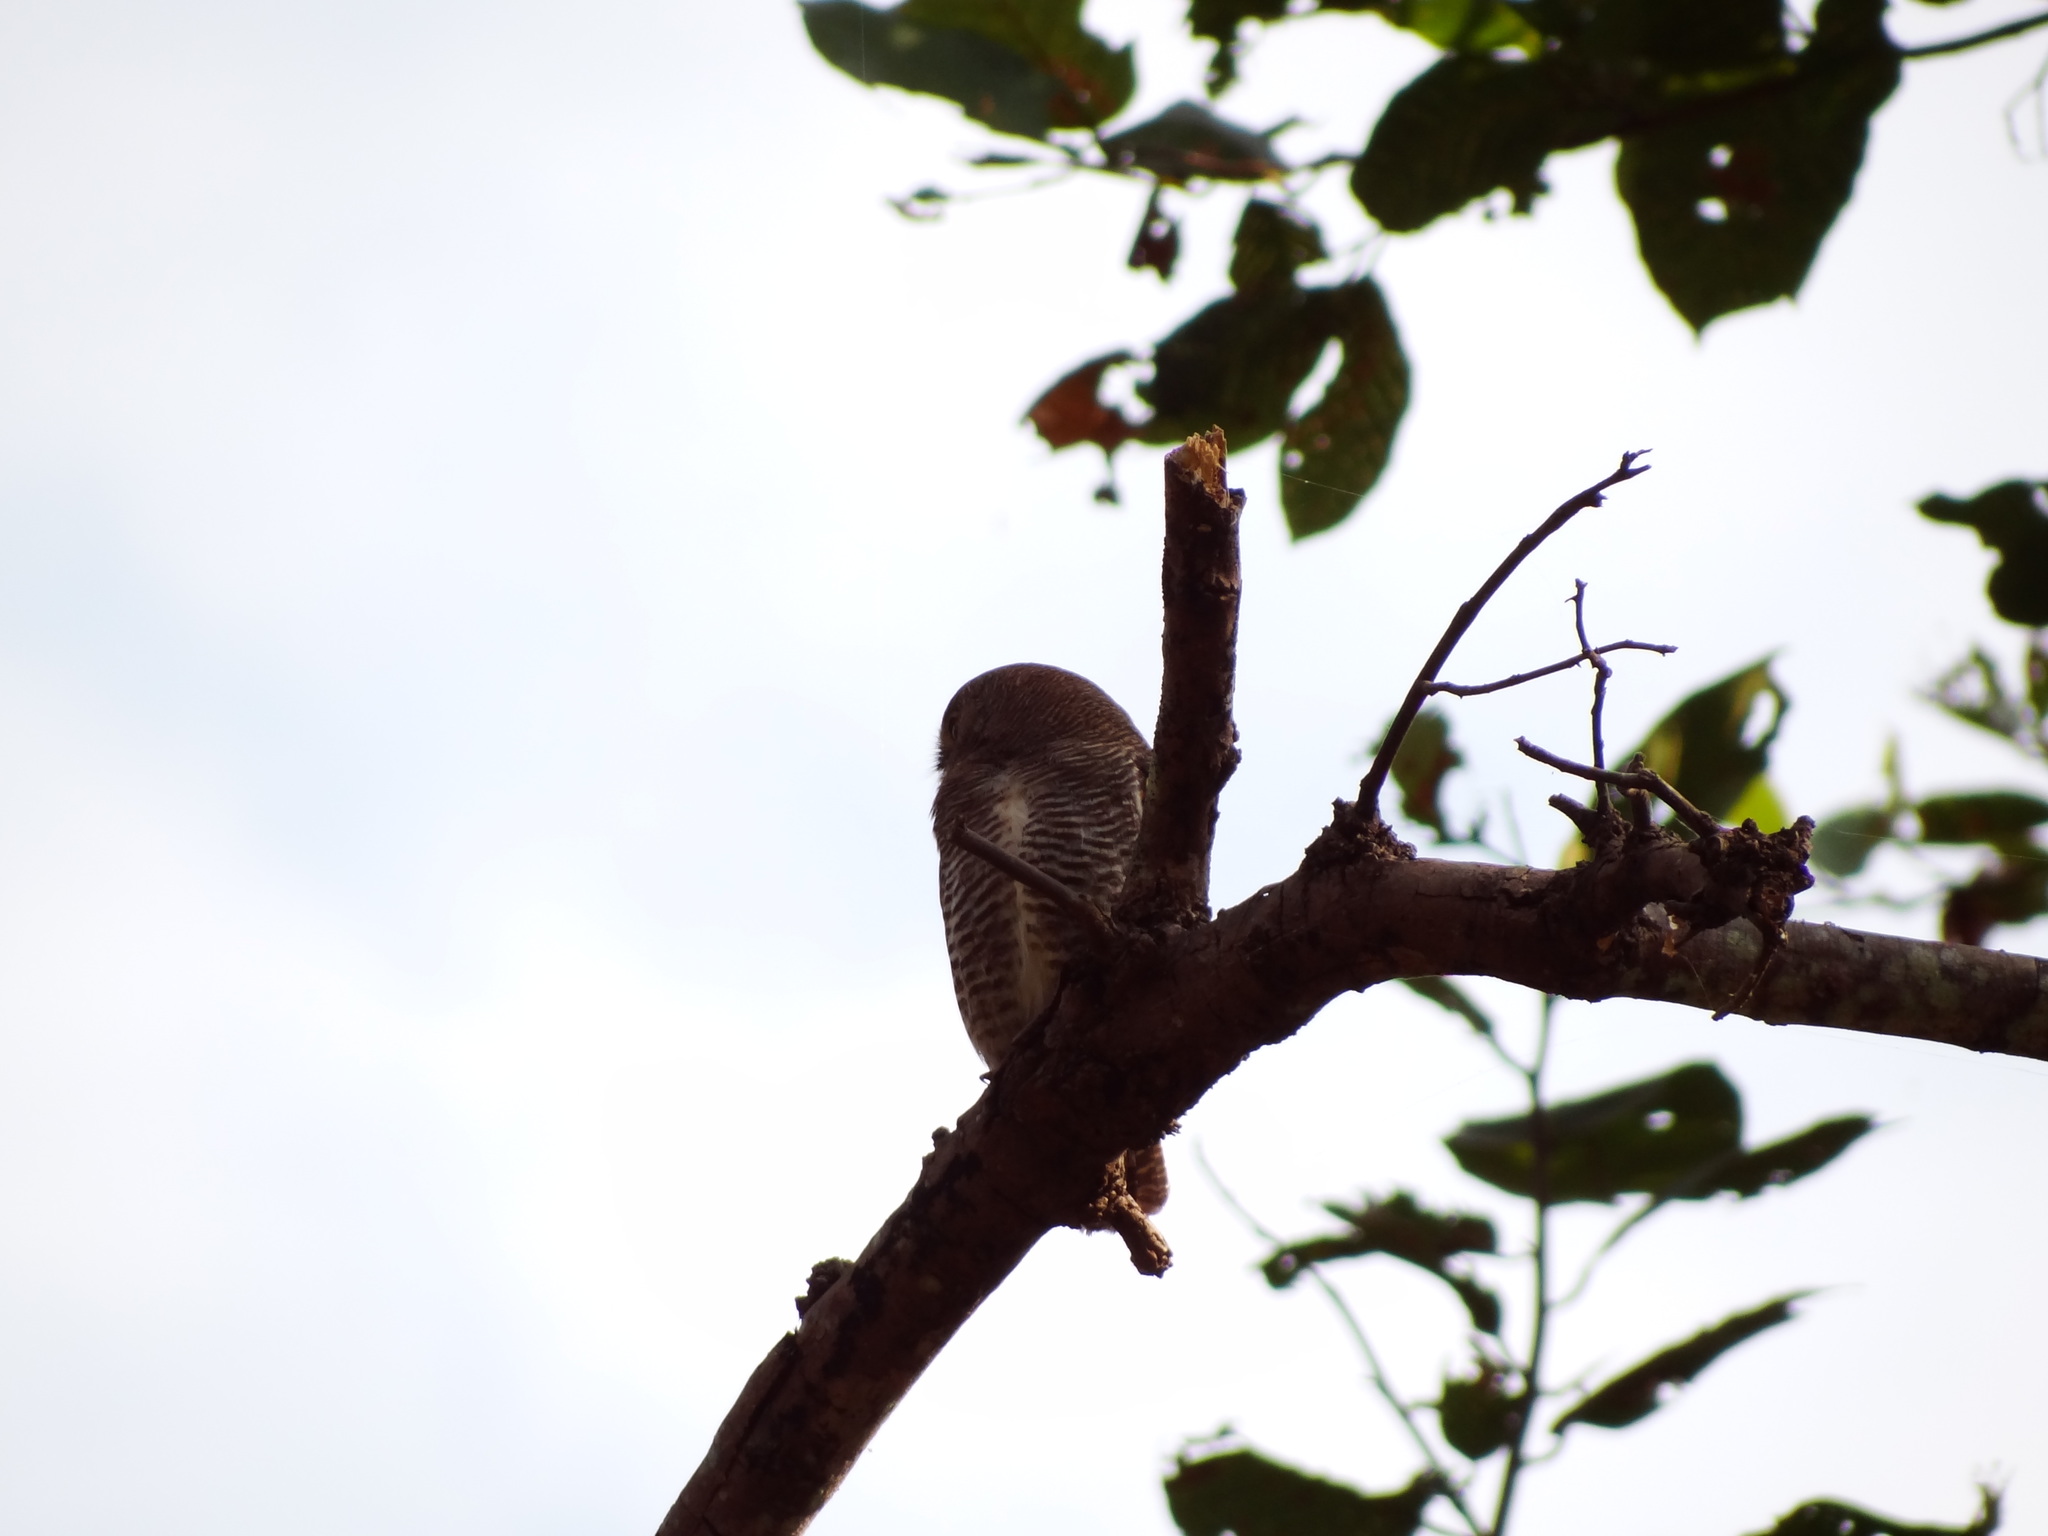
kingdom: Animalia
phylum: Chordata
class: Aves
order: Strigiformes
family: Strigidae
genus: Glaucidium
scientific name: Glaucidium radiatum
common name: Jungle owlet
